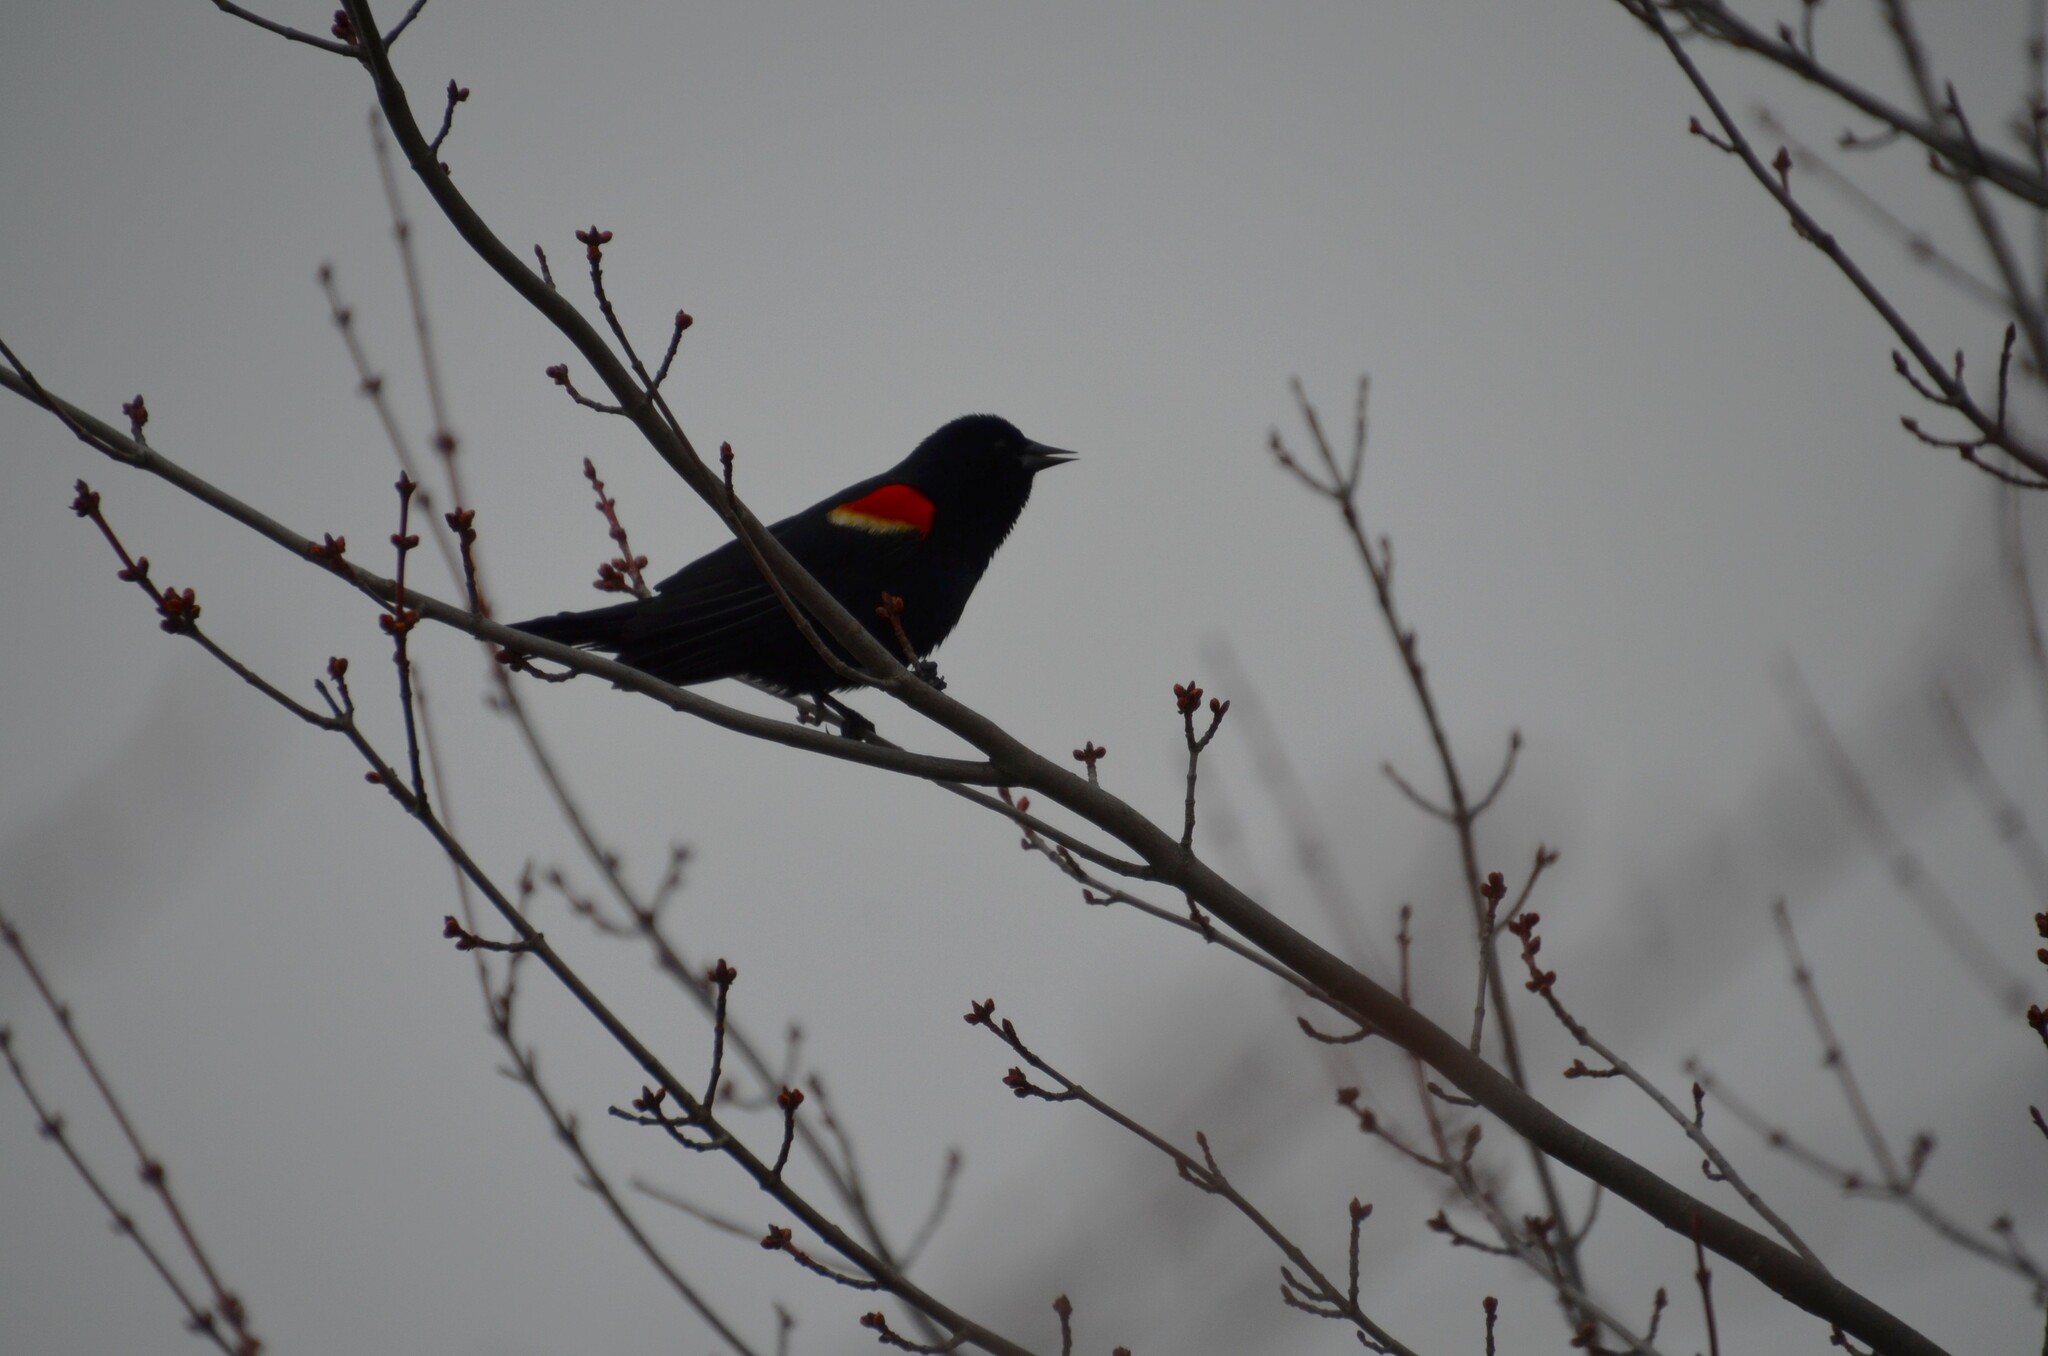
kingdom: Animalia
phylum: Chordata
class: Aves
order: Passeriformes
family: Icteridae
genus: Agelaius
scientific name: Agelaius phoeniceus
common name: Red-winged blackbird
